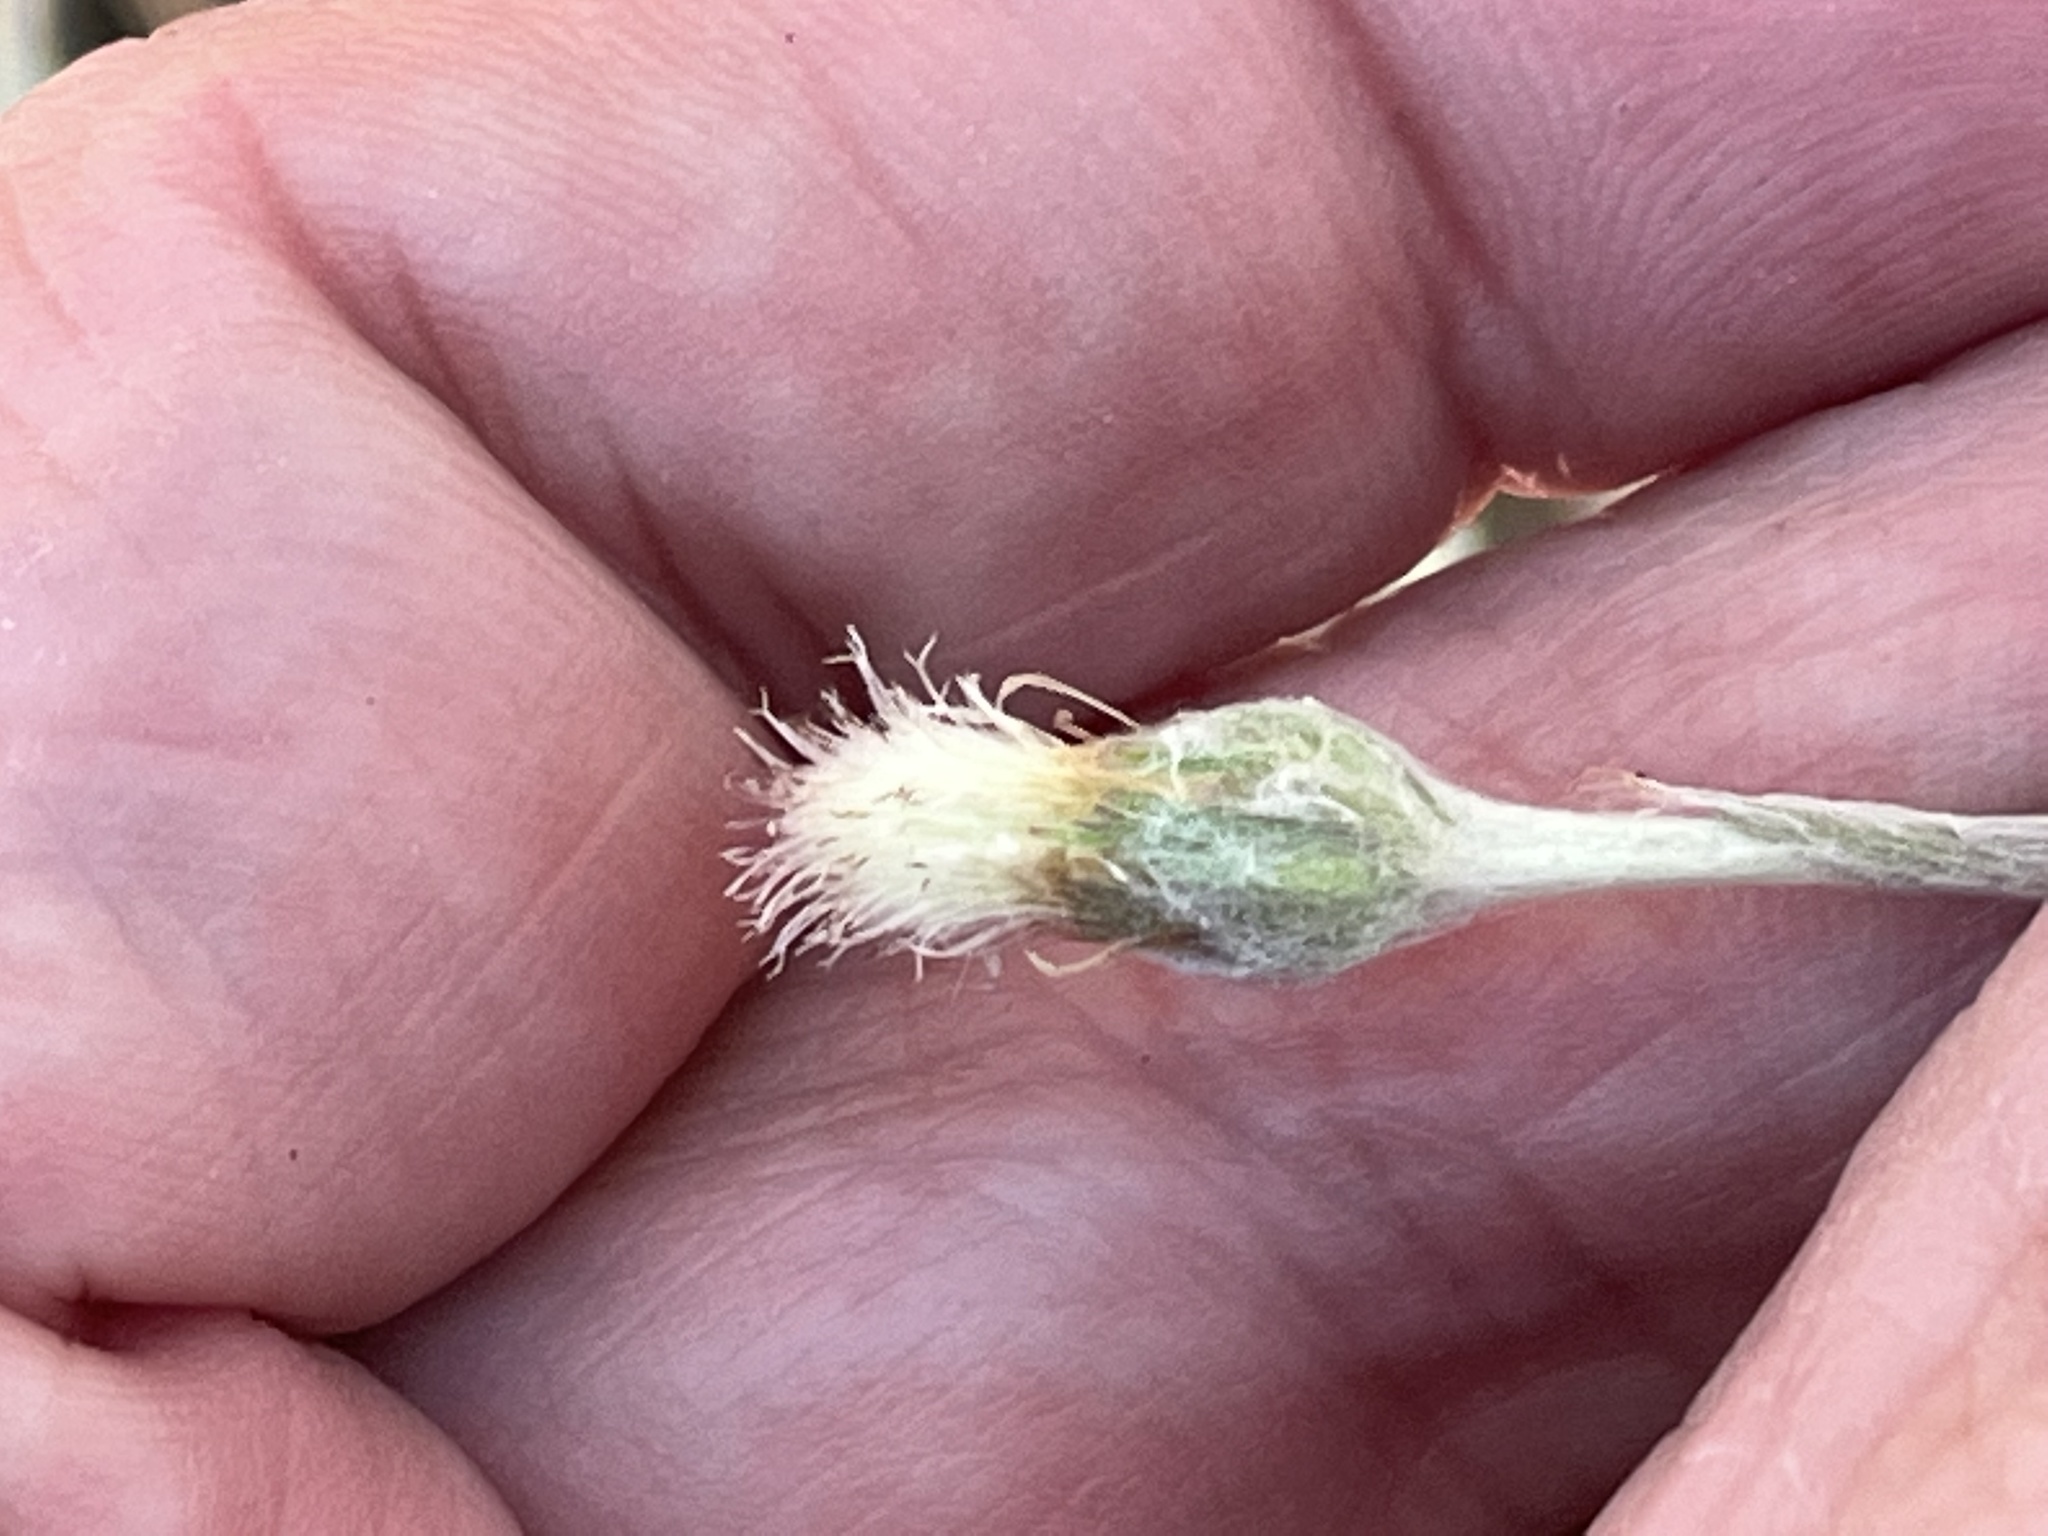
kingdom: Plantae
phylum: Tracheophyta
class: Magnoliopsida
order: Asterales
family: Asteraceae
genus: Antennaria
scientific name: Antennaria solitaria
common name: Single-head pussytoes
